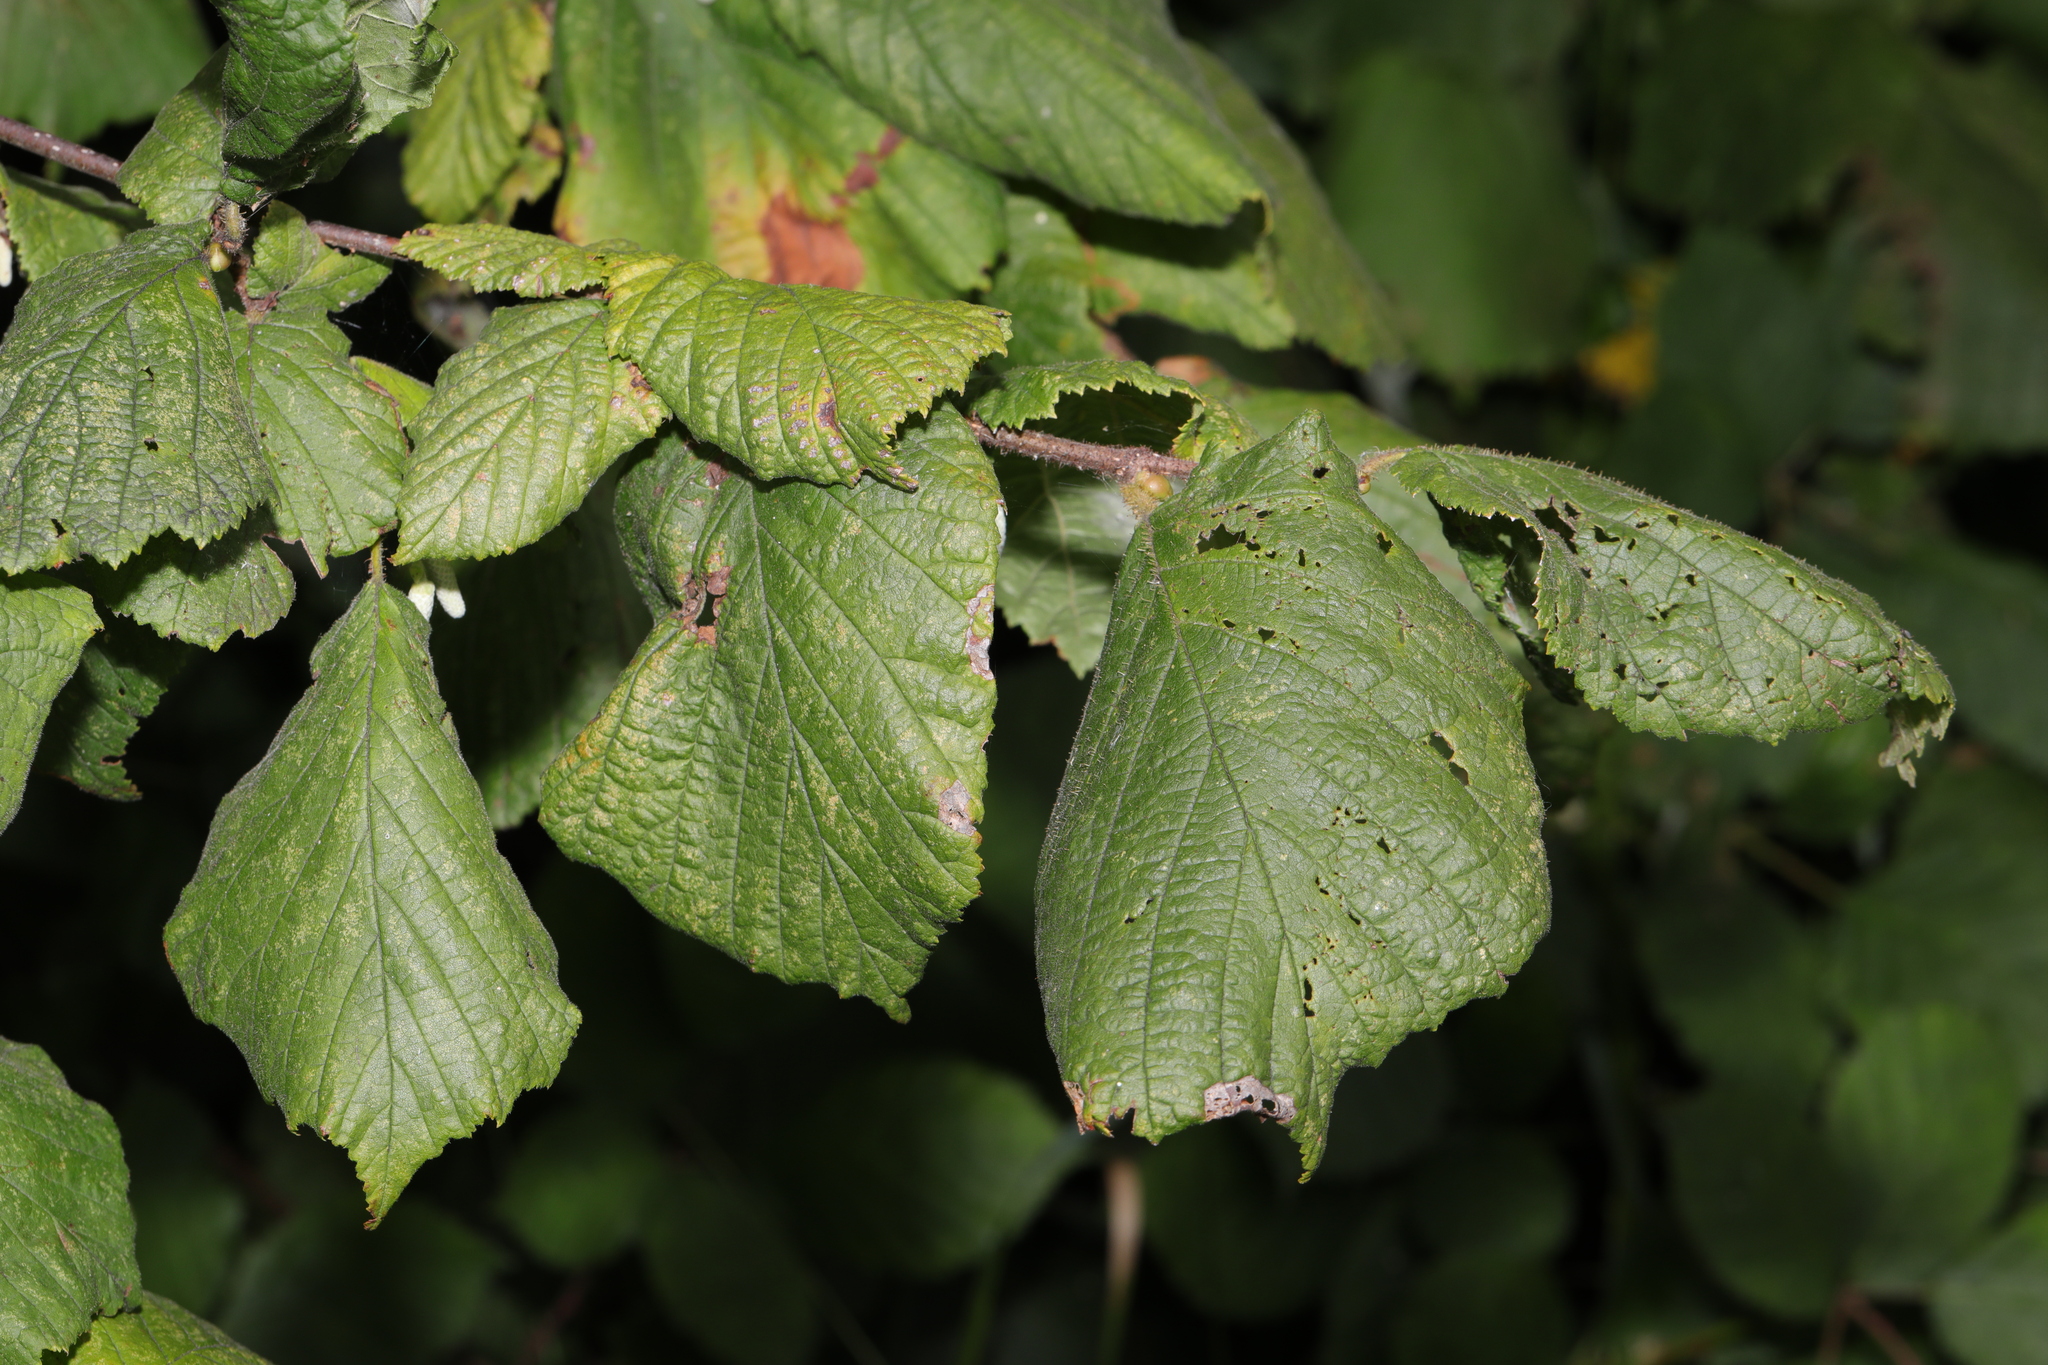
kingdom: Plantae
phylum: Tracheophyta
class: Magnoliopsida
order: Fagales
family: Betulaceae
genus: Corylus
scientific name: Corylus avellana
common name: European hazel
